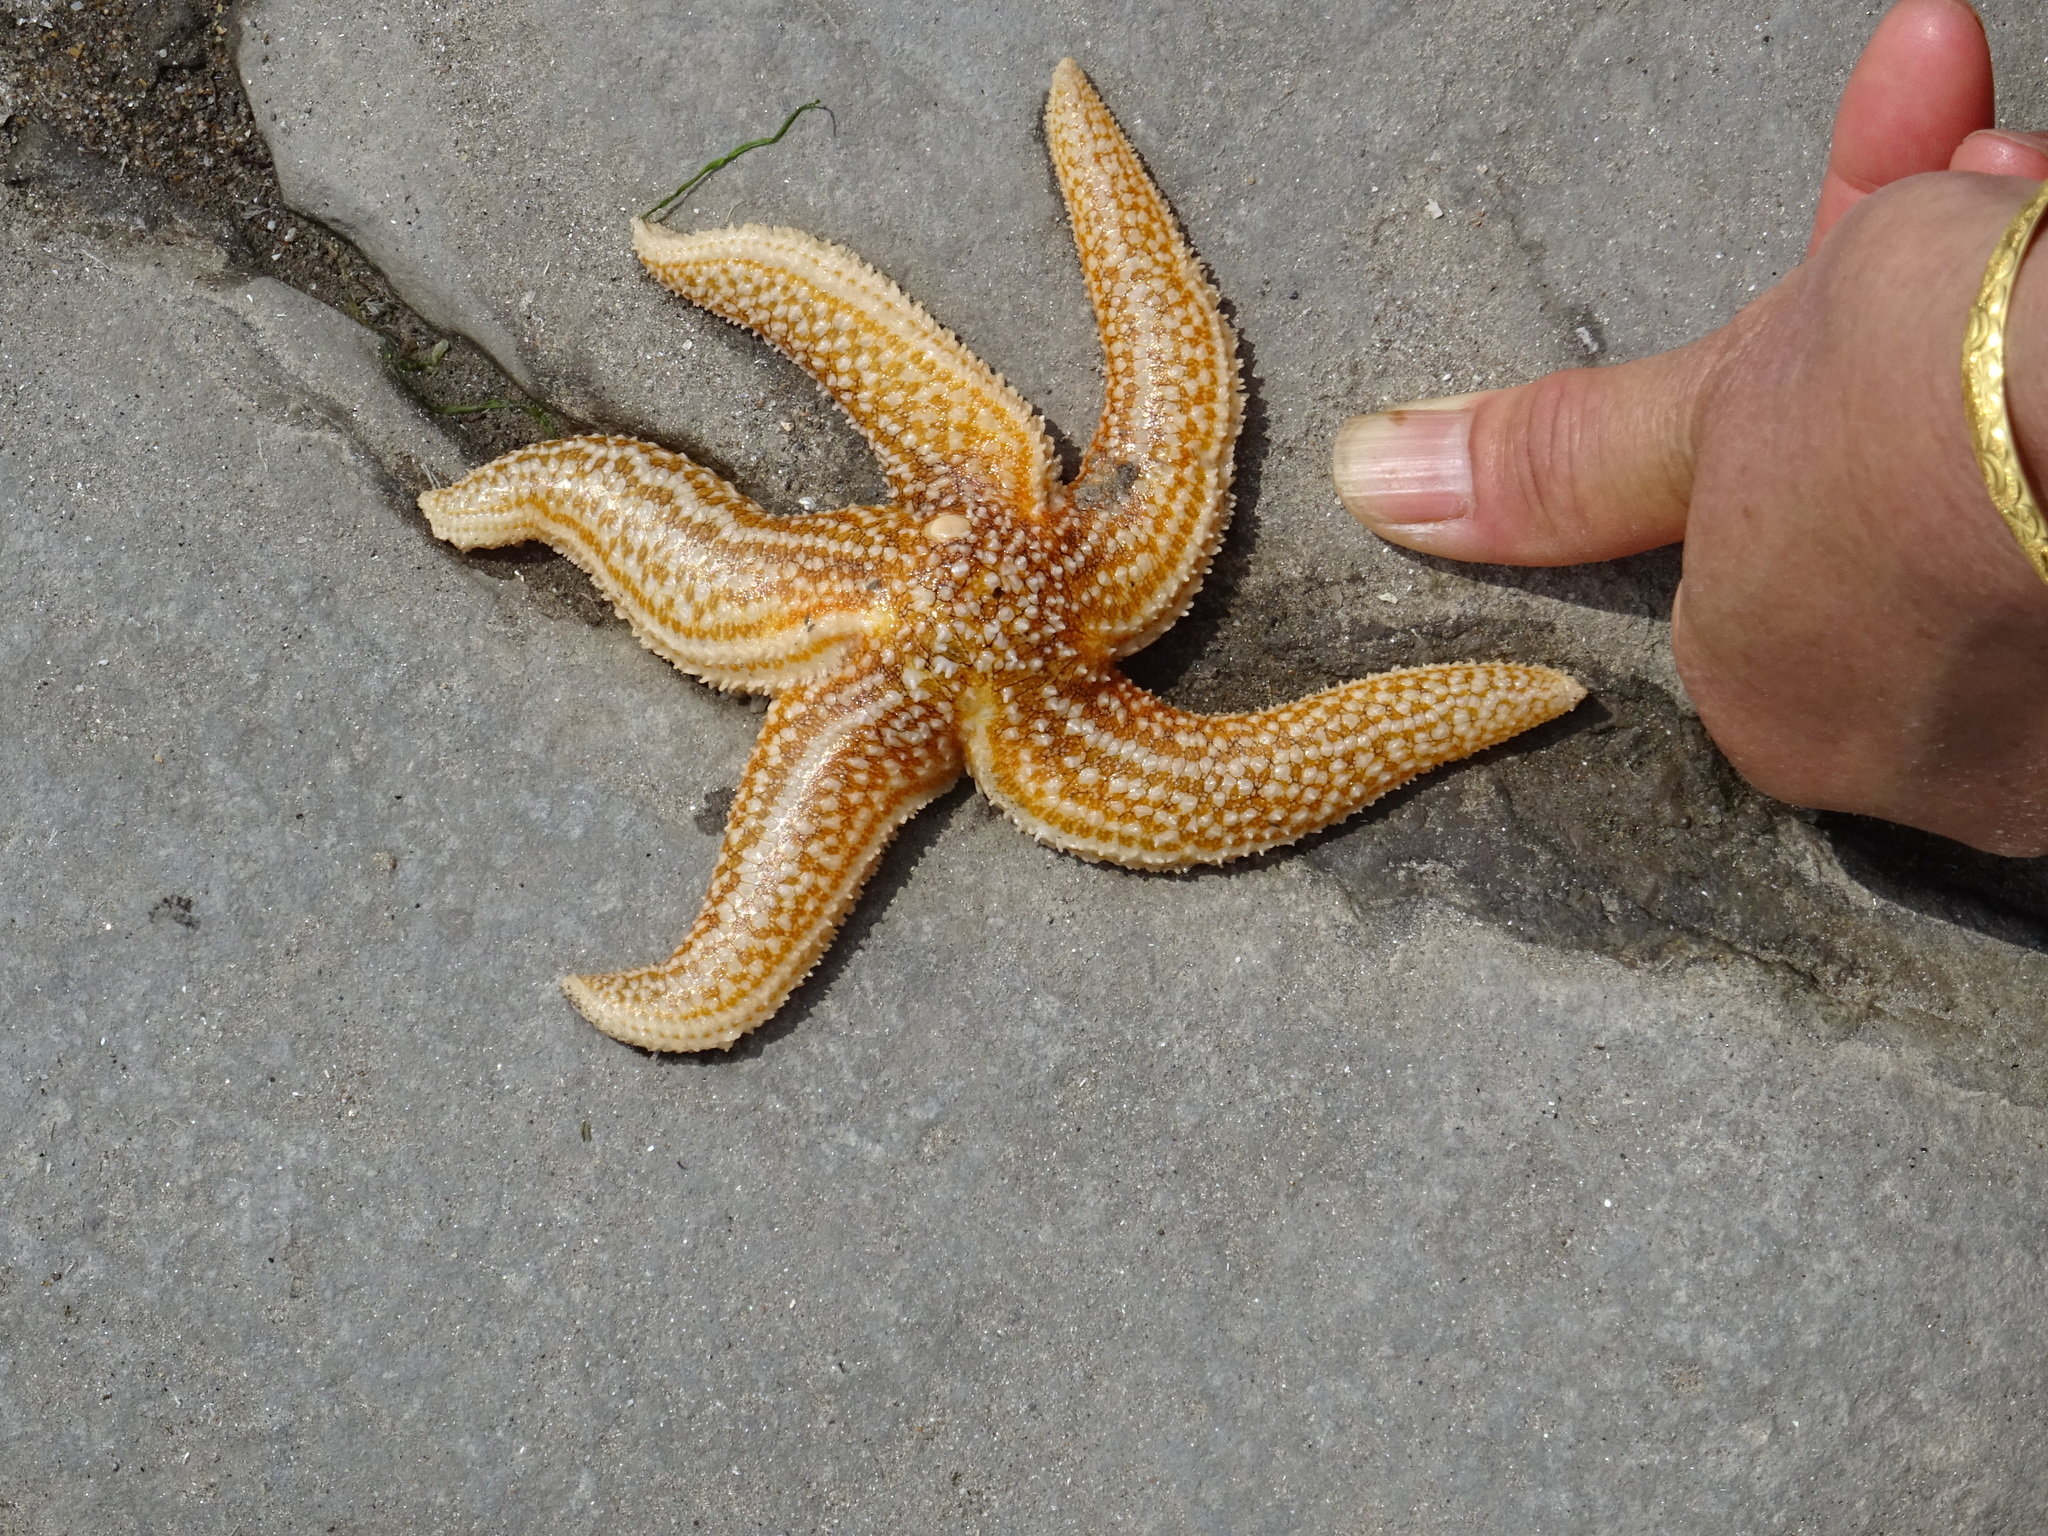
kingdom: Animalia
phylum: Echinodermata
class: Asteroidea
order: Forcipulatida
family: Asteriidae
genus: Asterias
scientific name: Asterias rubens
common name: Common starfish
